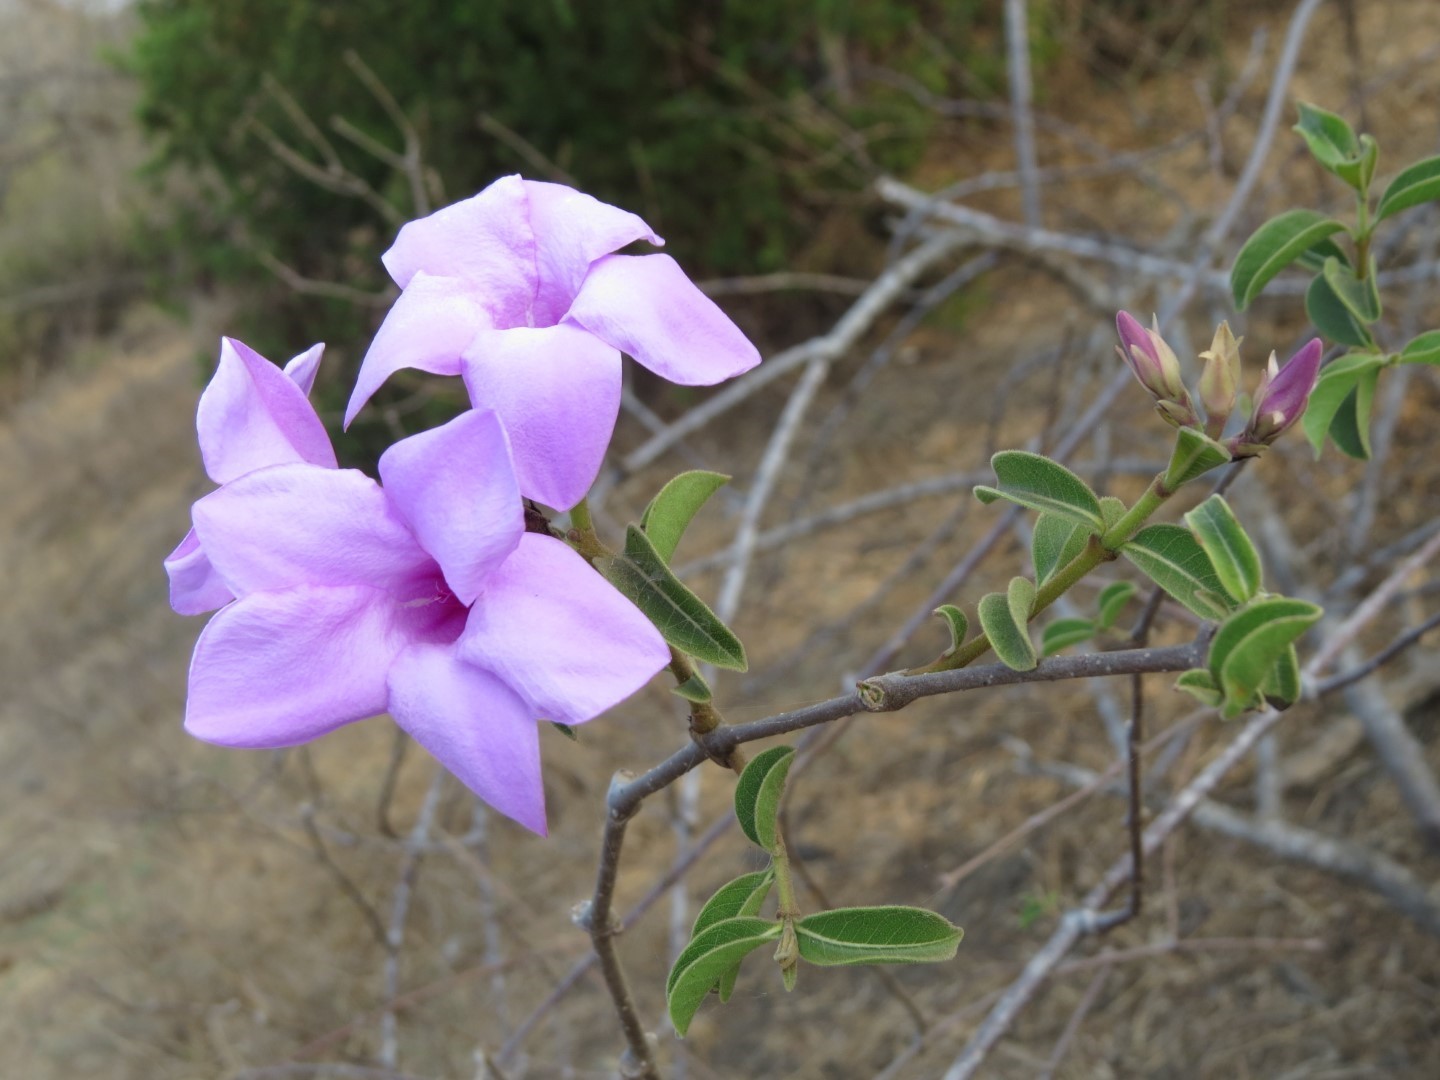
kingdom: Plantae
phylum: Tracheophyta
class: Magnoliopsida
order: Gentianales
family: Apocynaceae
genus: Cryptostegia
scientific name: Cryptostegia madagascariensis
